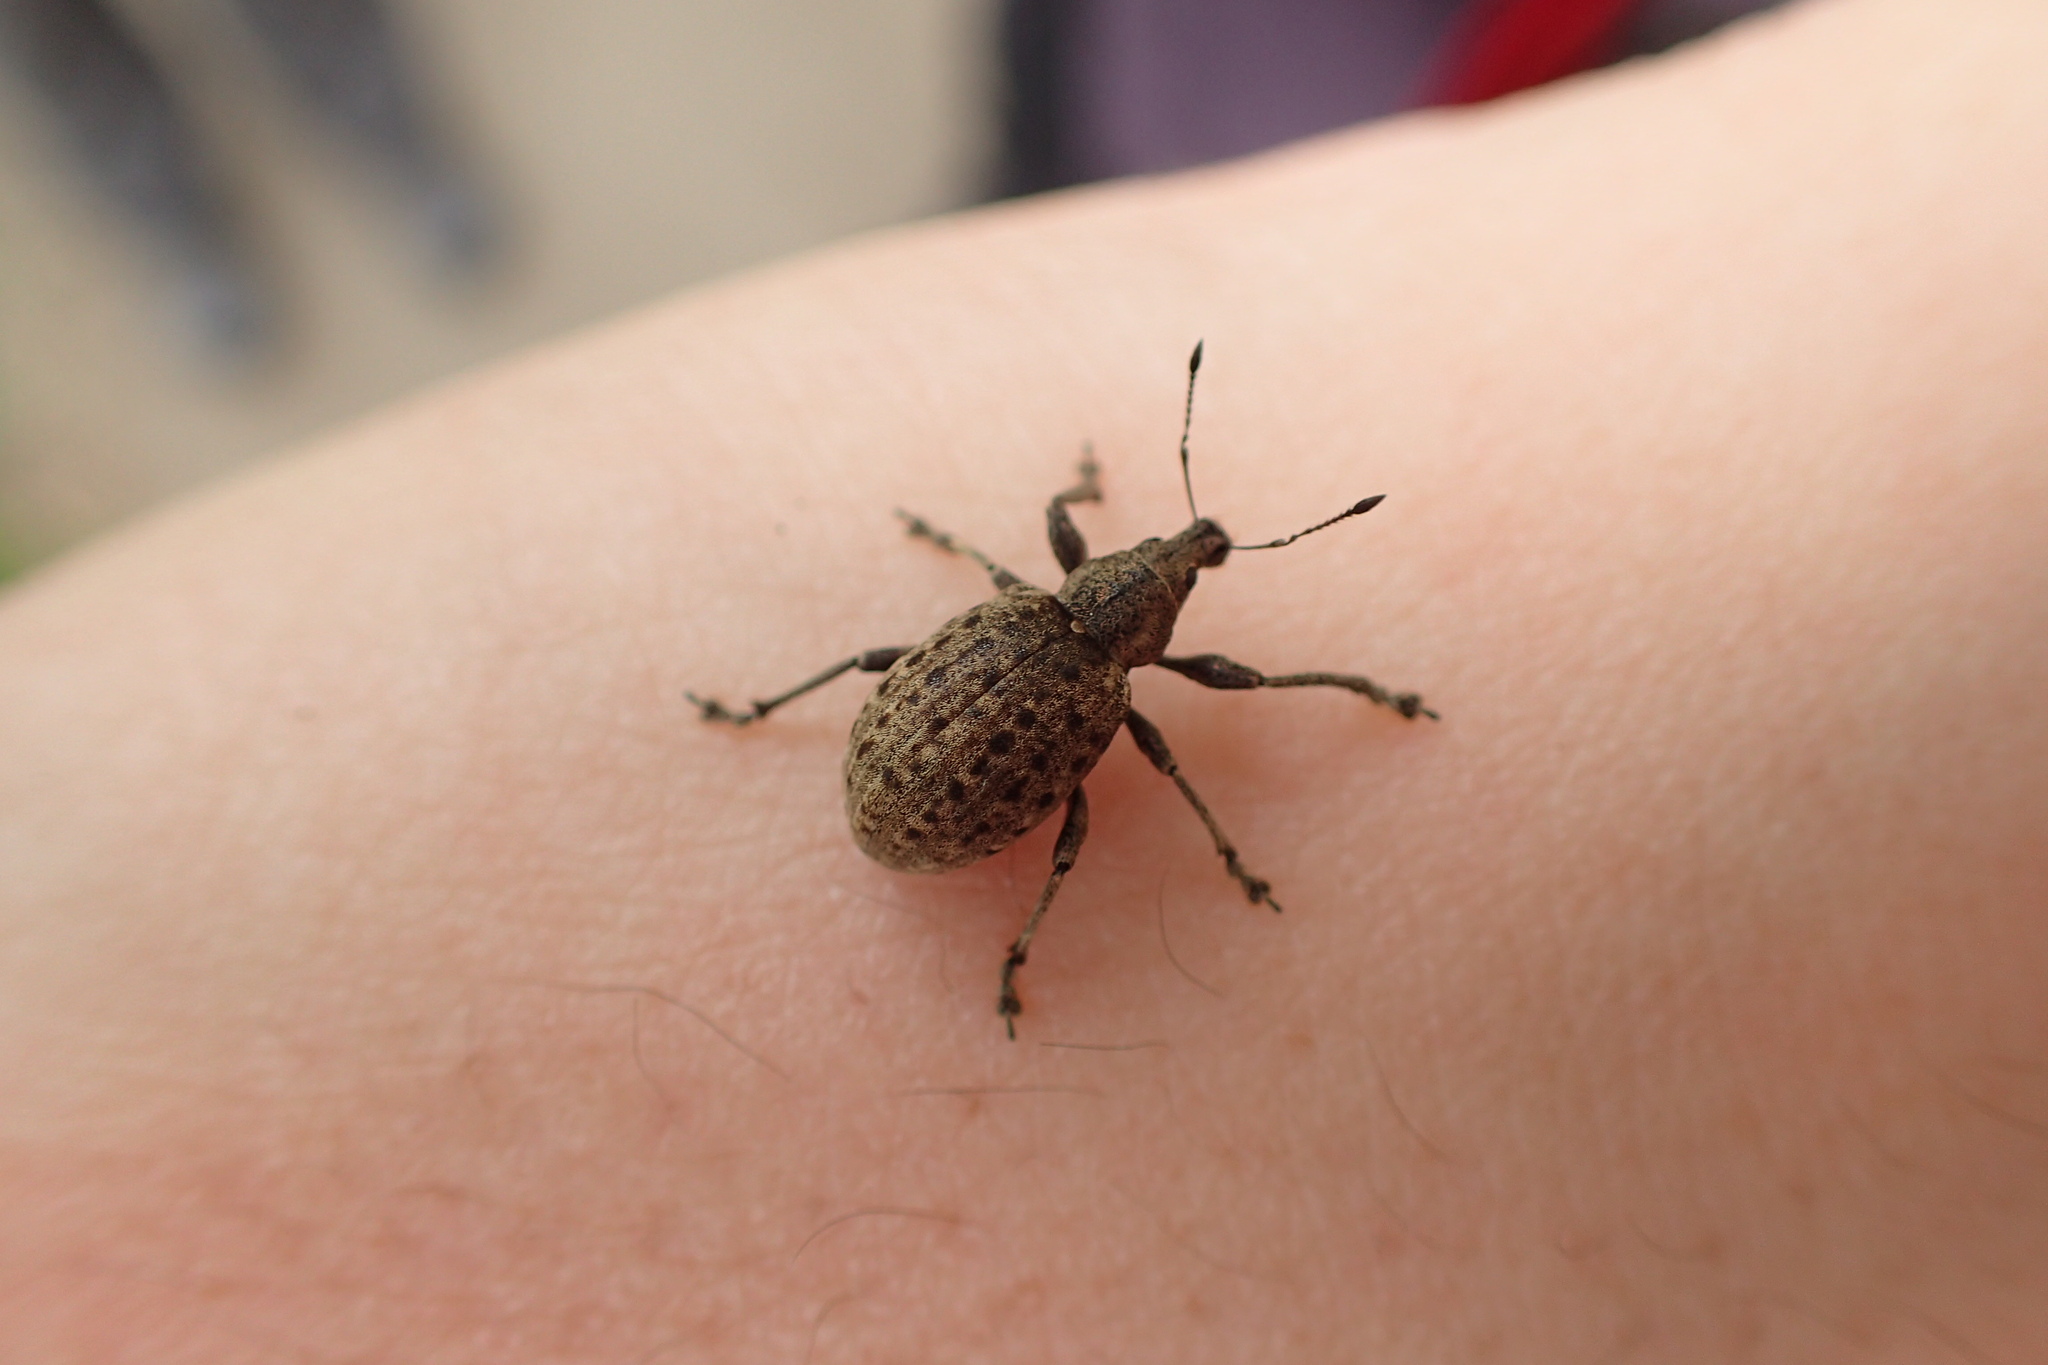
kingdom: Animalia
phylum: Arthropoda
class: Insecta
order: Coleoptera
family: Curculionidae
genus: Liophloeus
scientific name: Liophloeus tessulatus
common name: Weevil
